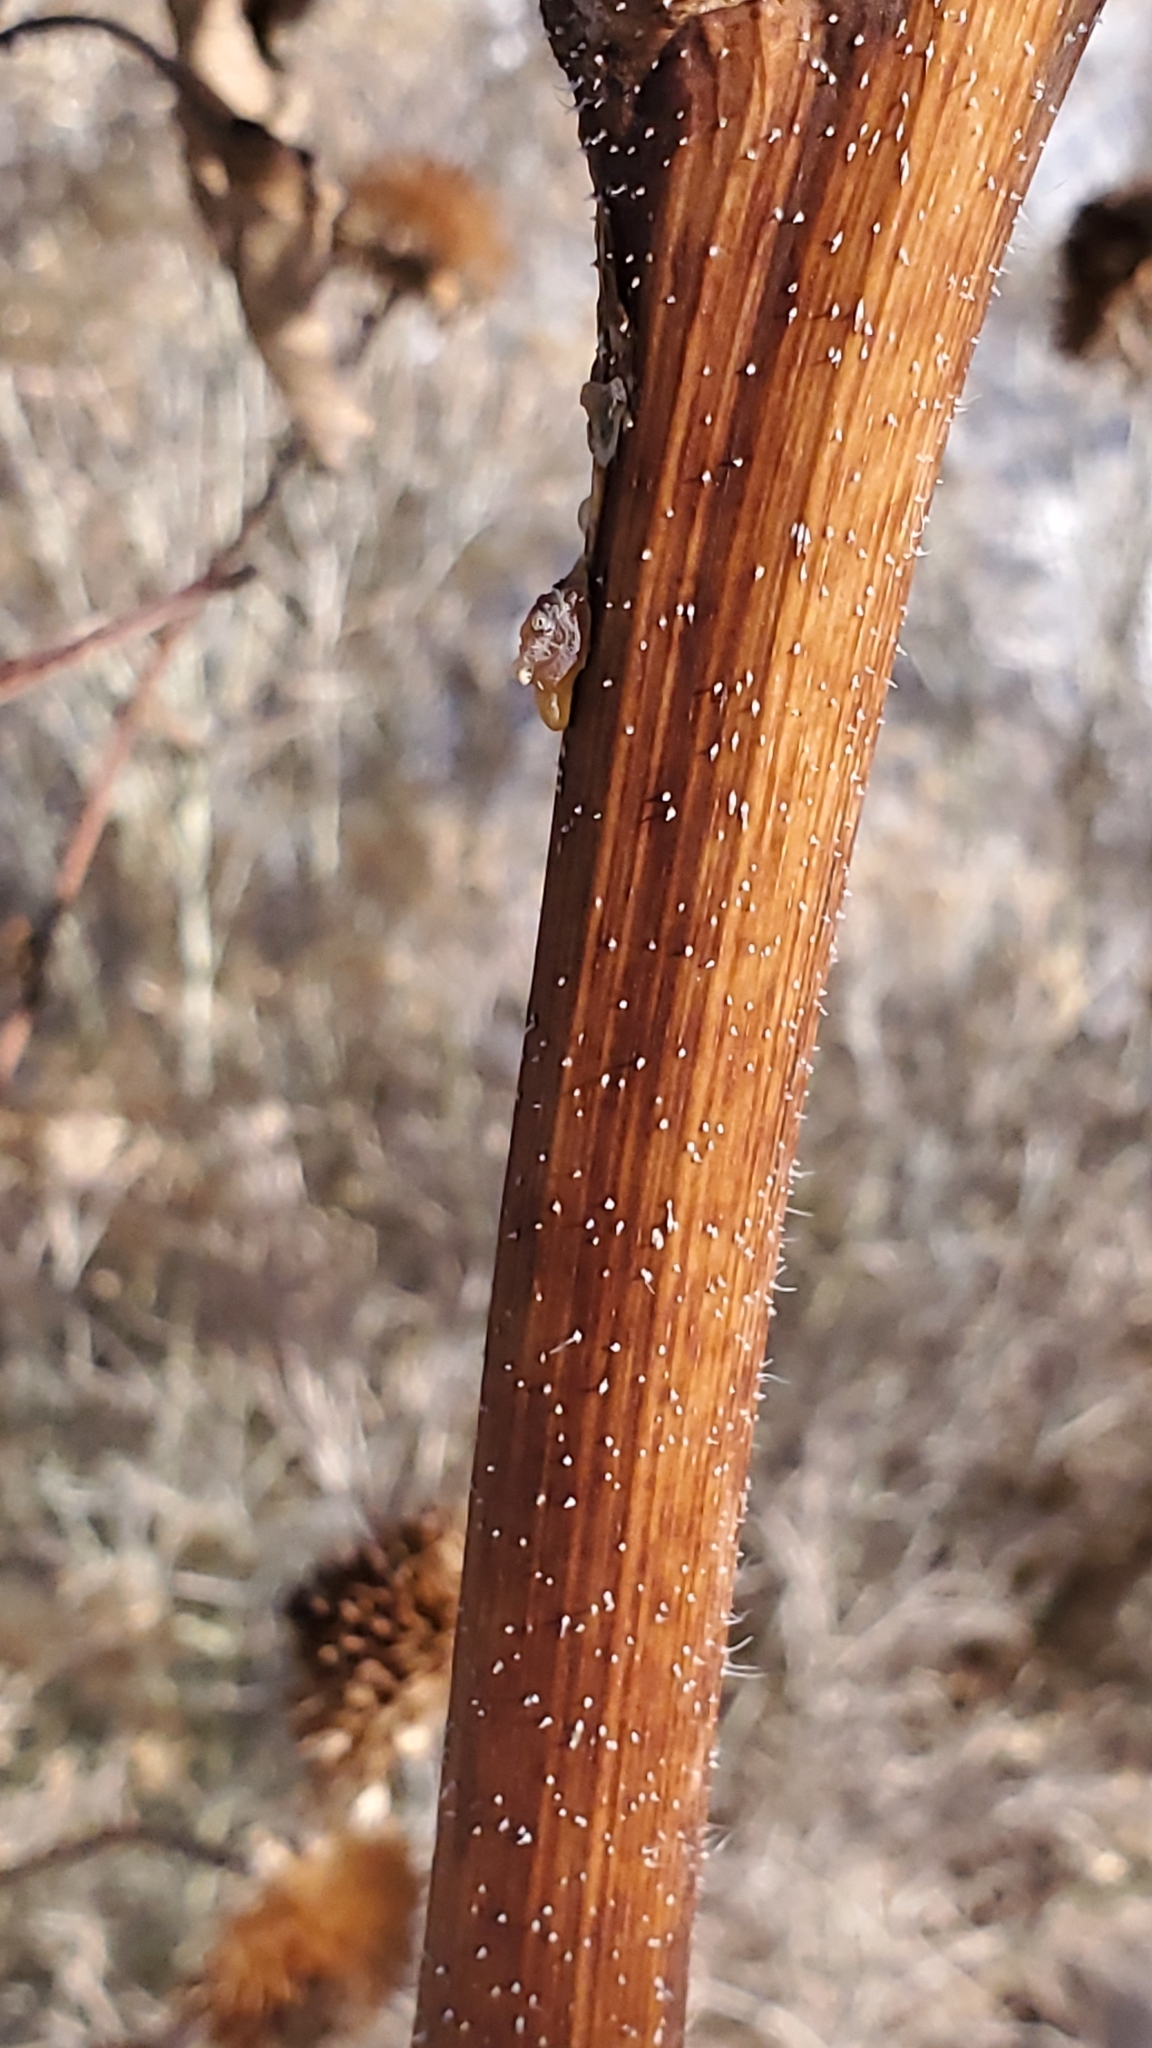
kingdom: Plantae
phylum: Tracheophyta
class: Magnoliopsida
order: Asterales
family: Asteraceae
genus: Helianthus
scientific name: Helianthus annuus
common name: Sunflower
